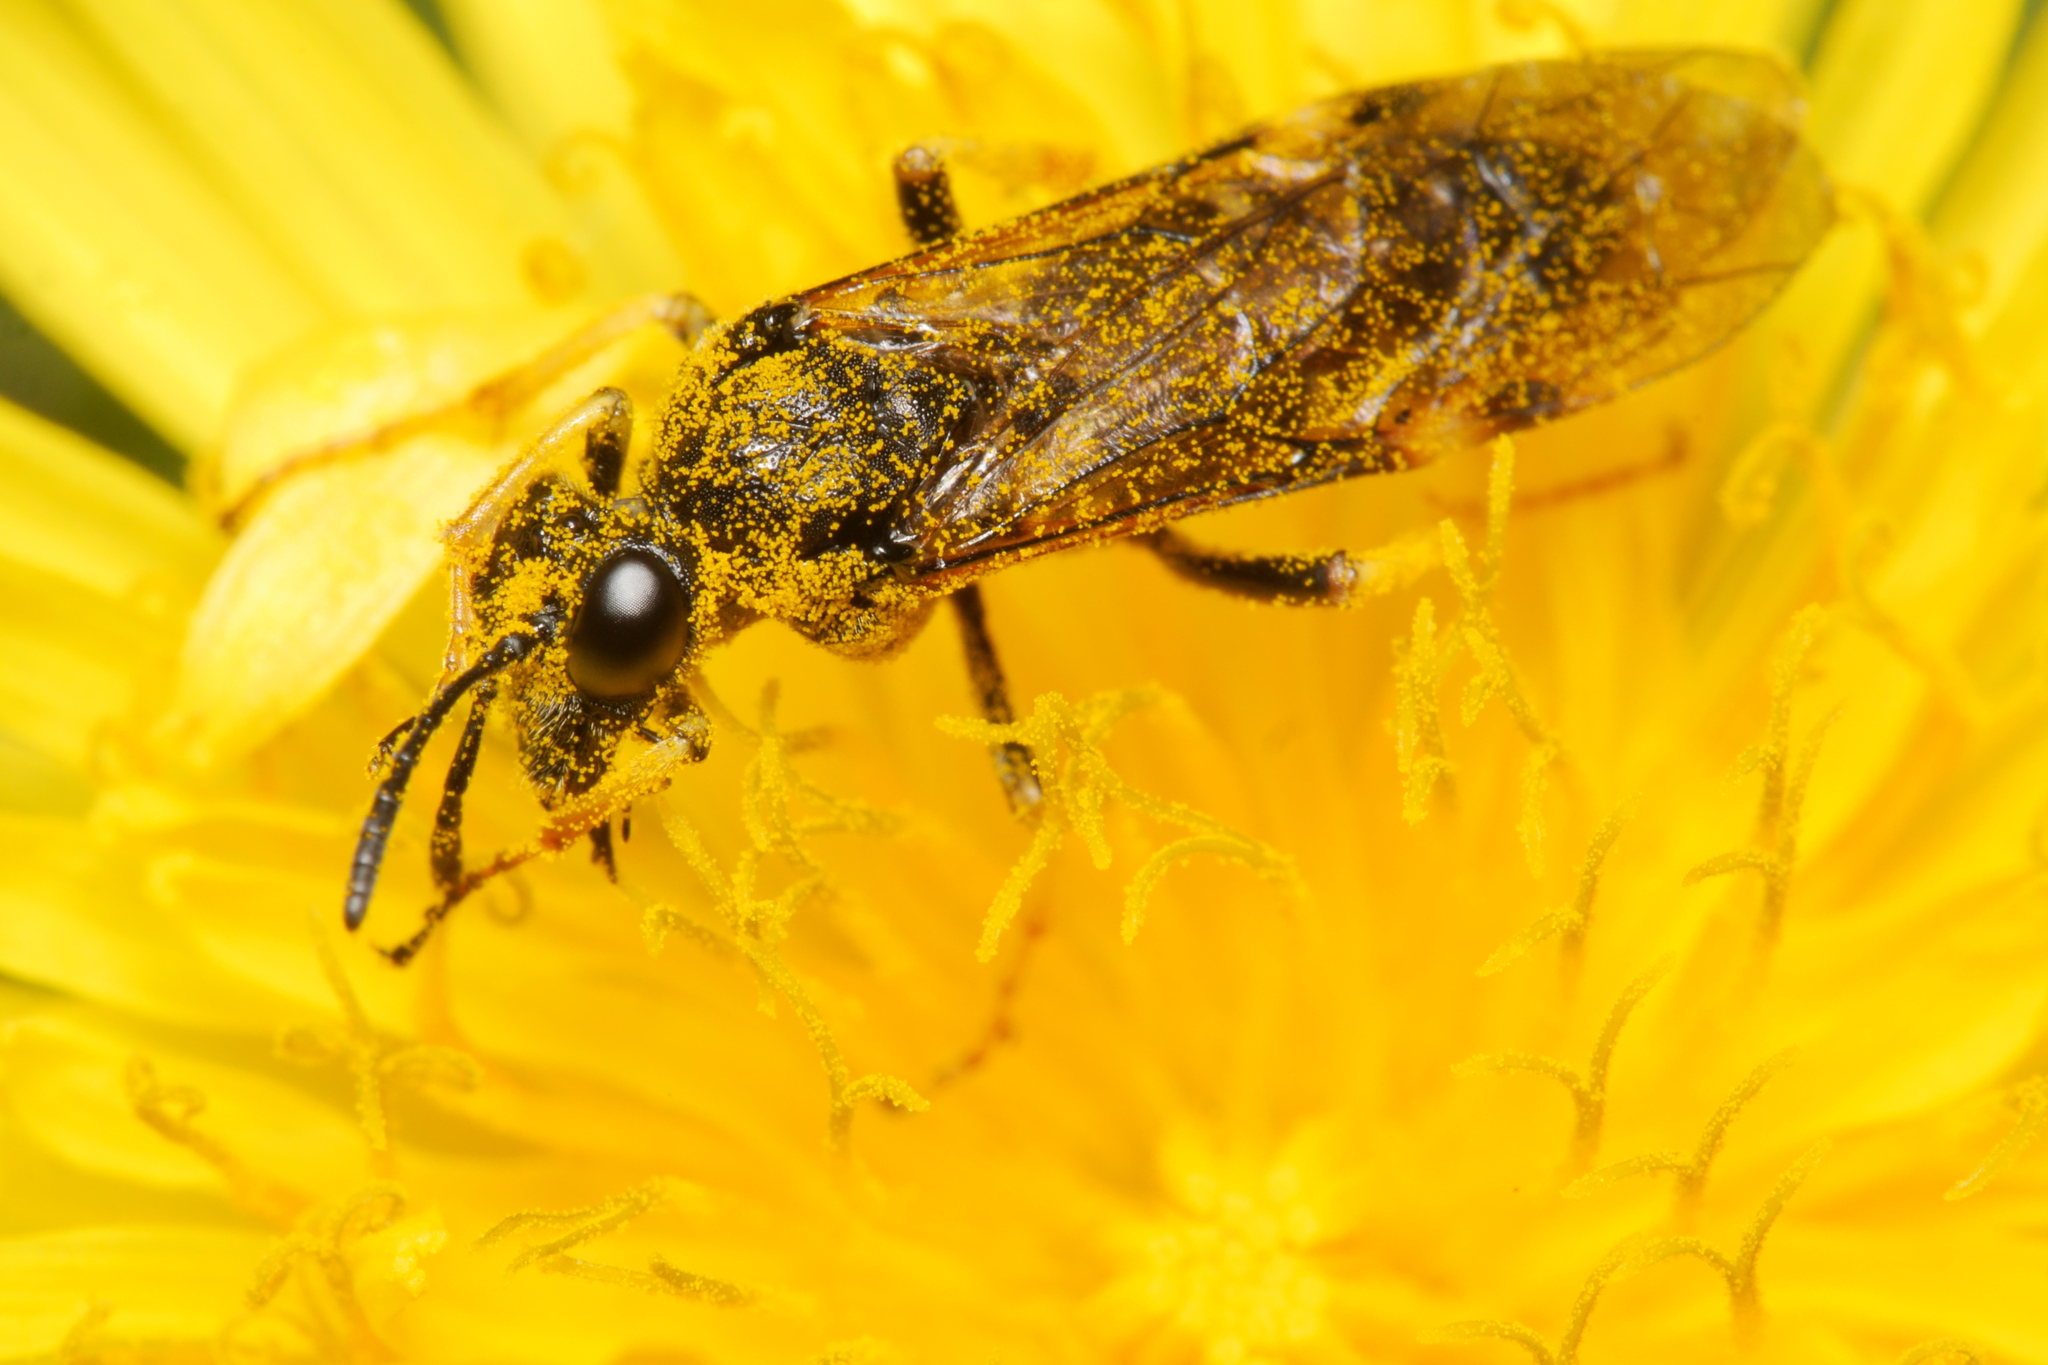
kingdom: Animalia
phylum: Arthropoda
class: Insecta
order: Hymenoptera
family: Tenthredinidae
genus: Tenthredo
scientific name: Tenthredo koehleri
